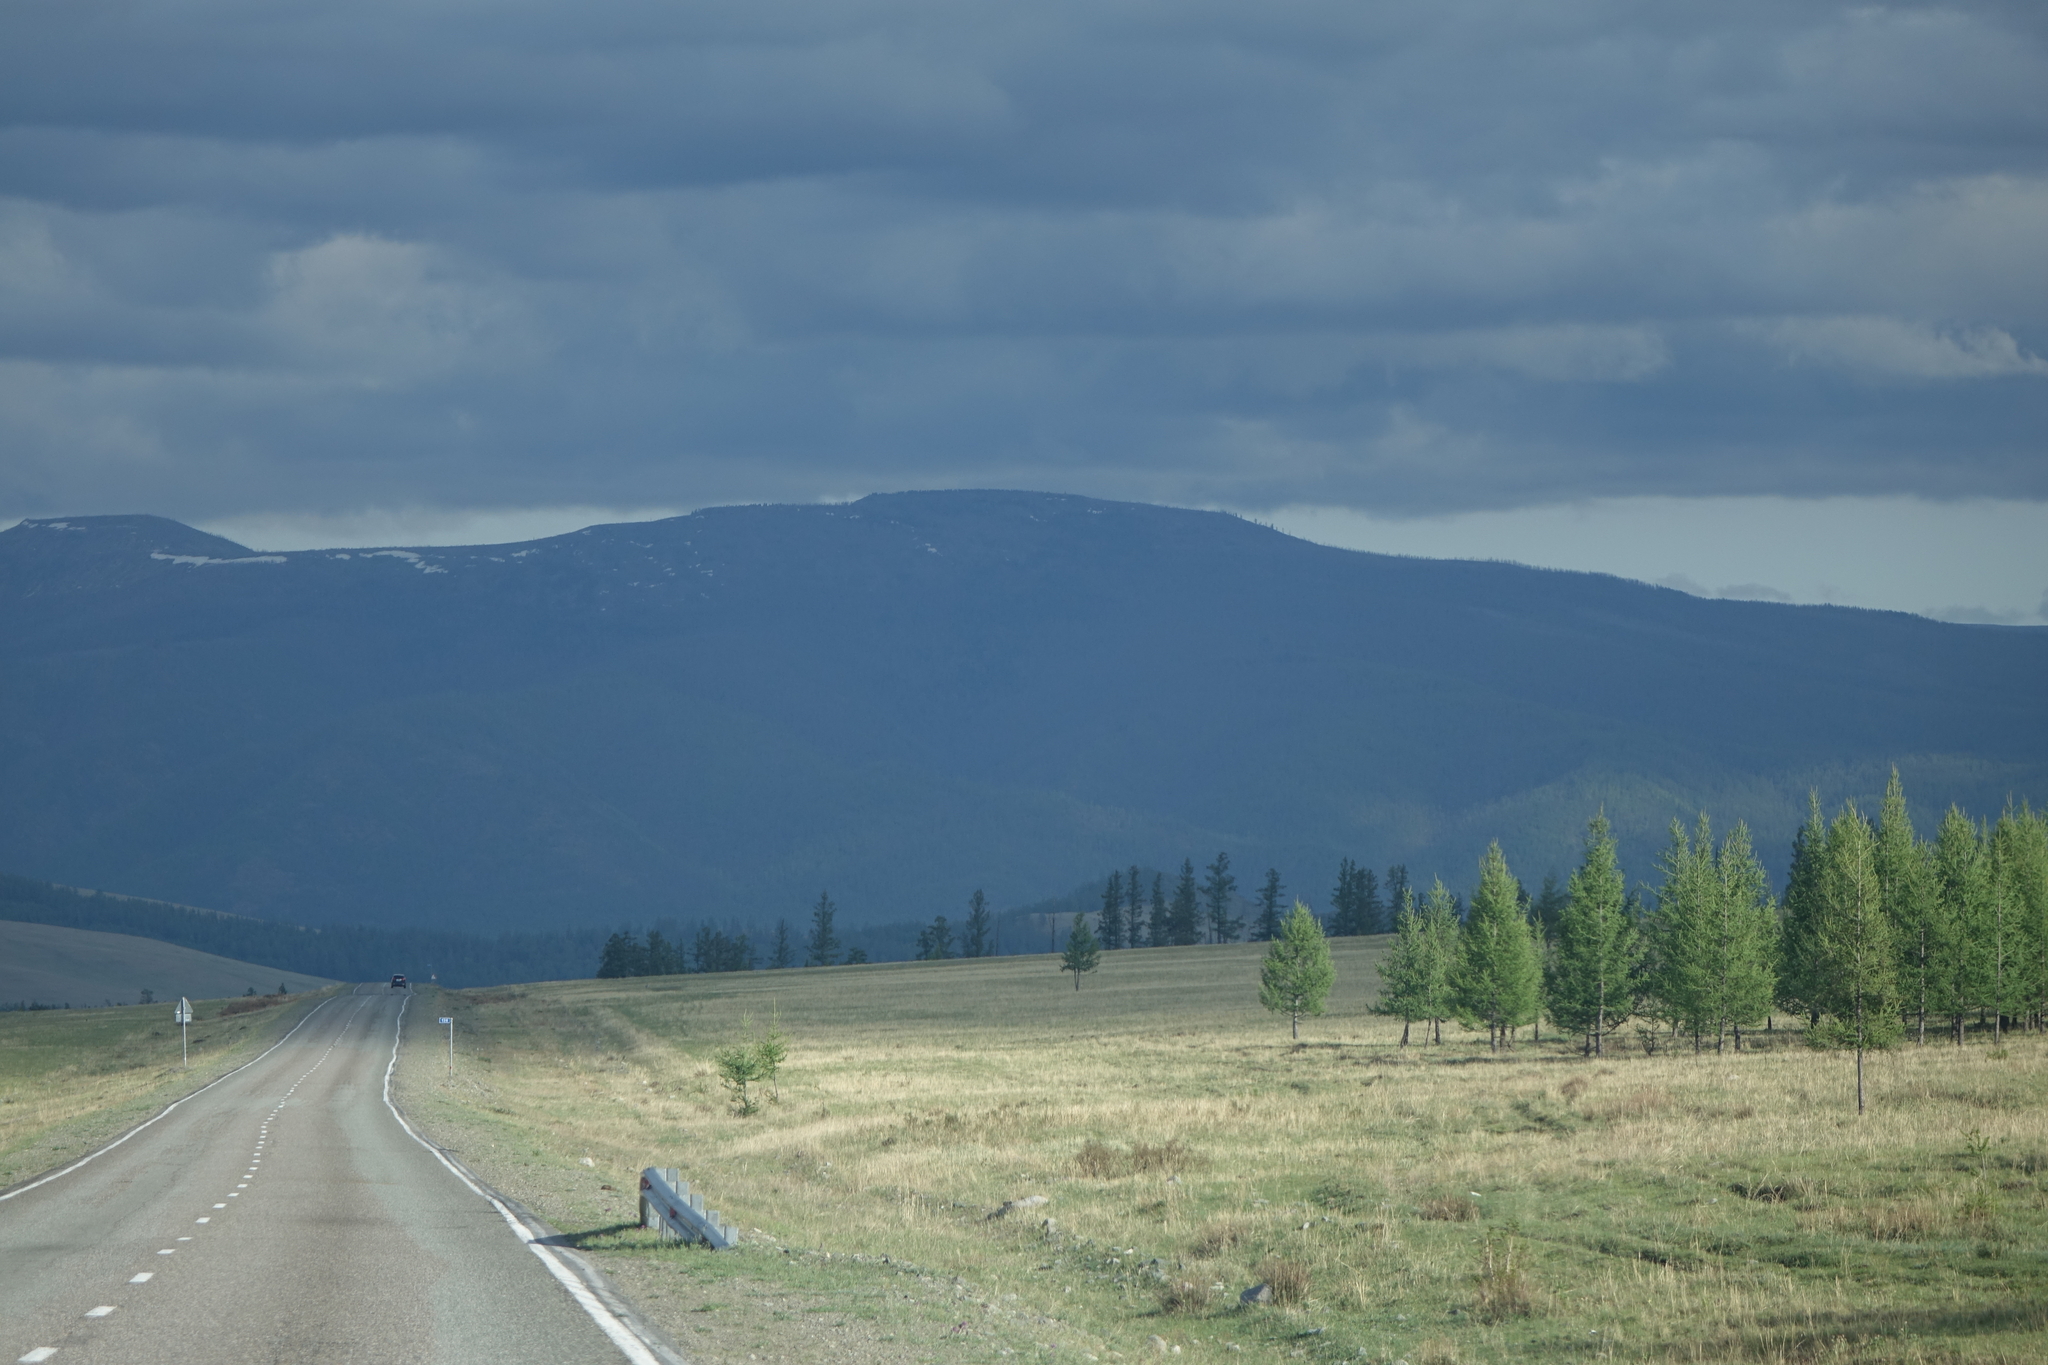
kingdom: Plantae
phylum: Tracheophyta
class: Pinopsida
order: Pinales
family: Pinaceae
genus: Larix
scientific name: Larix sibirica
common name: Siberian larch
